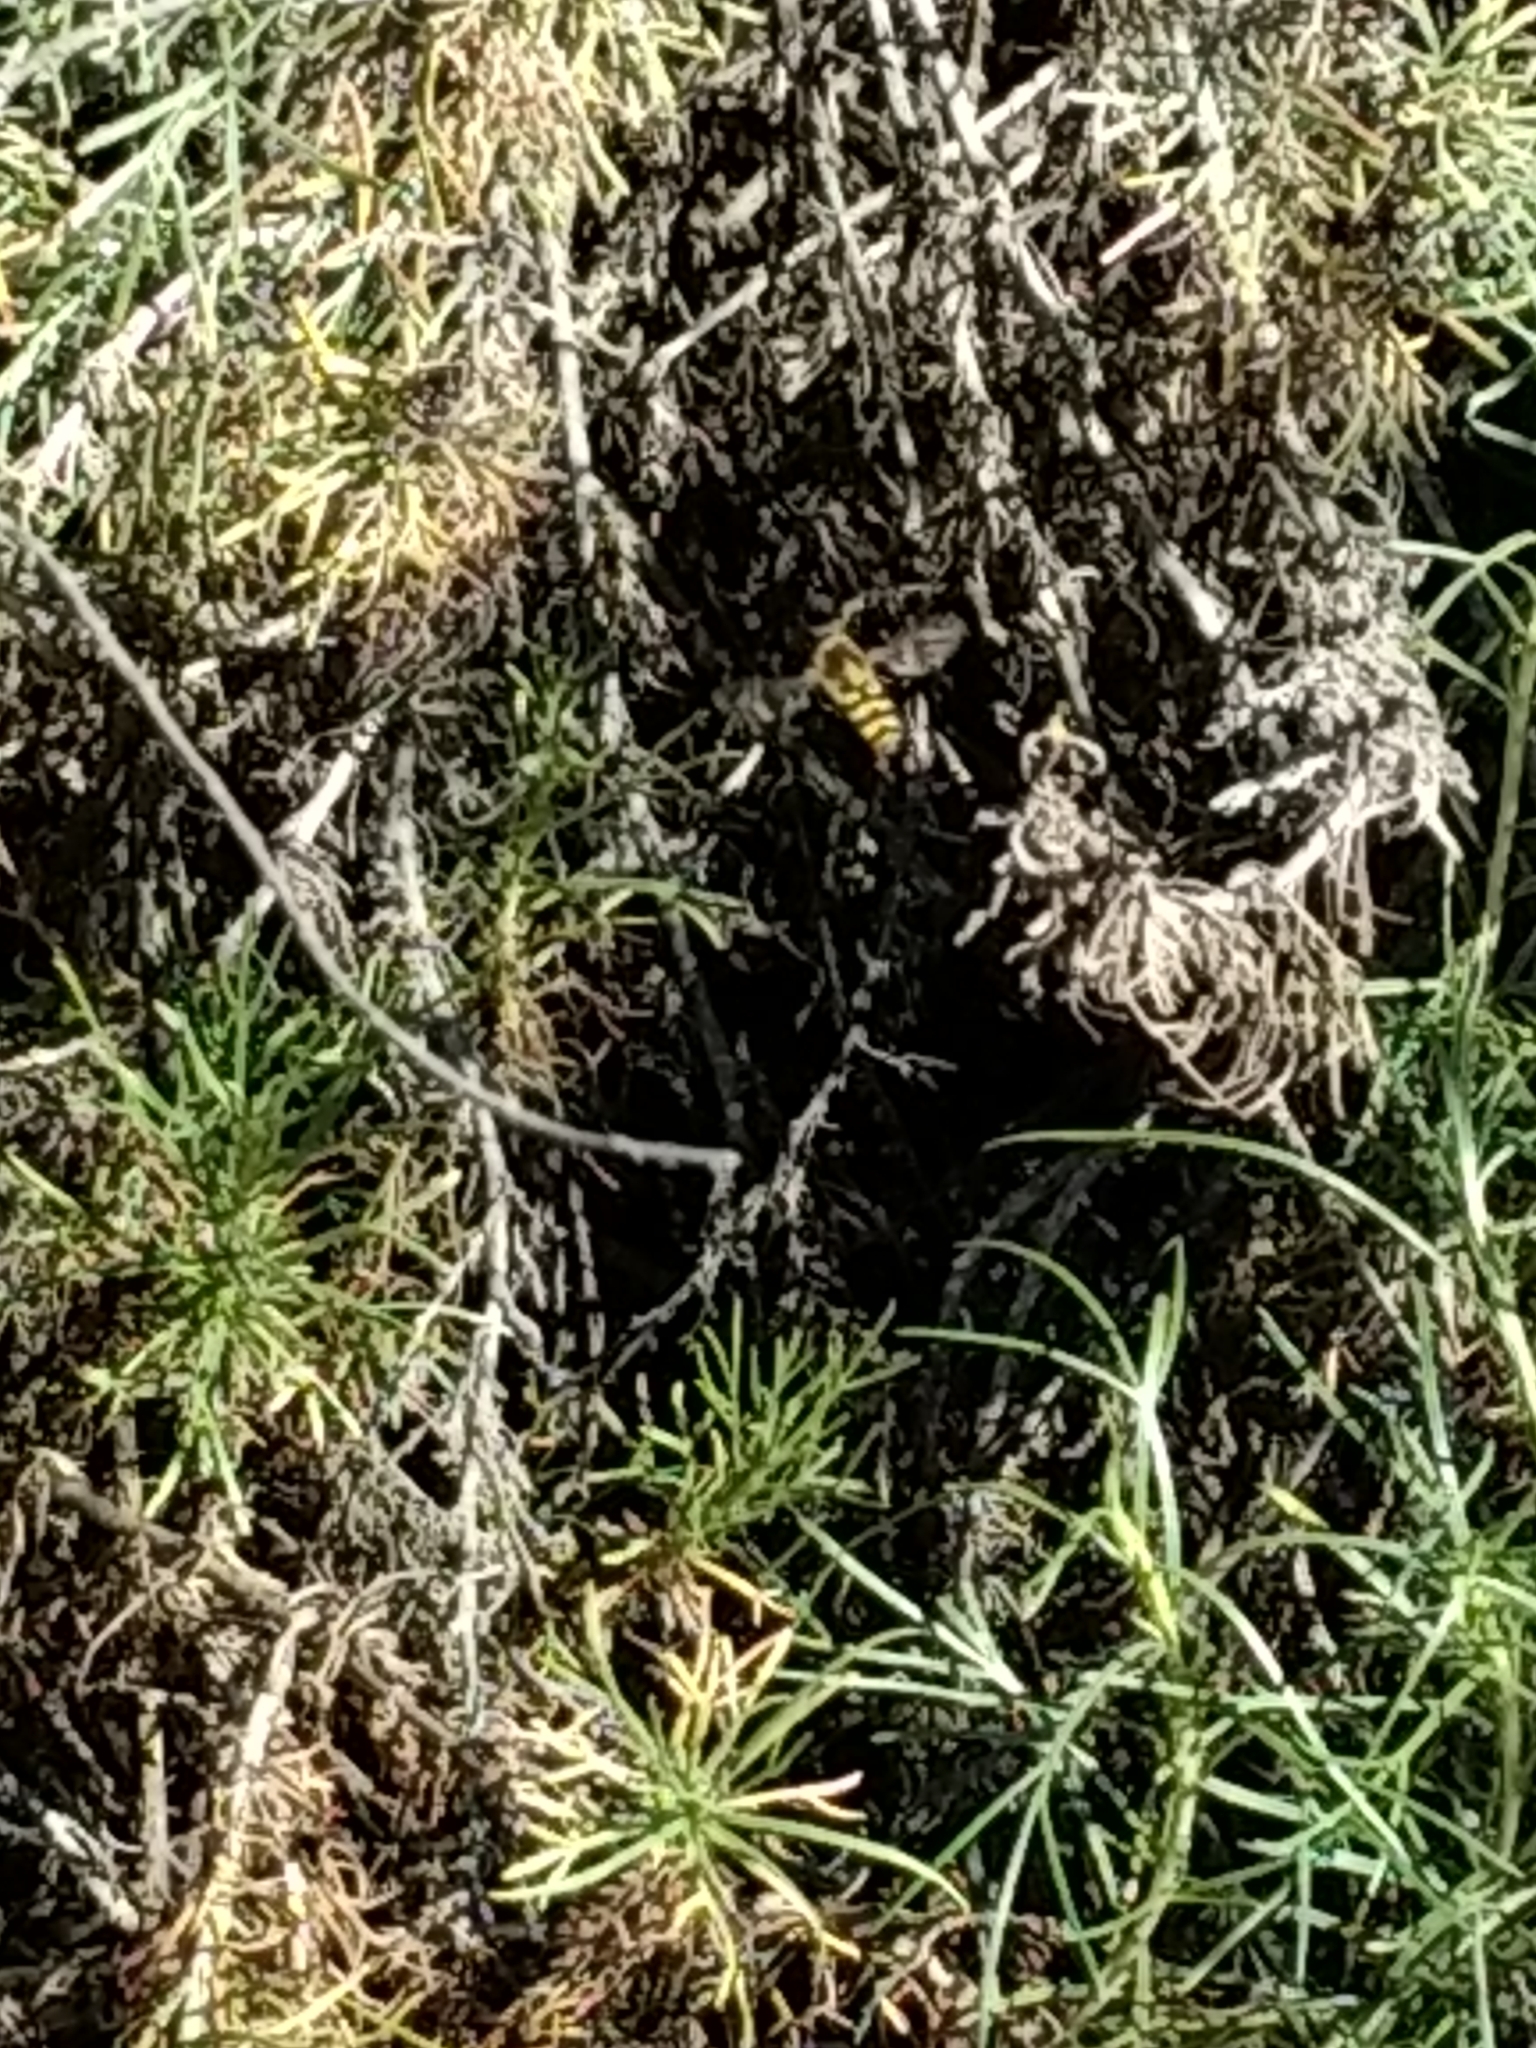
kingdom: Animalia
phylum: Arthropoda
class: Insecta
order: Diptera
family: Syrphidae
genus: Eupeodes
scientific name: Eupeodes fumipennis
